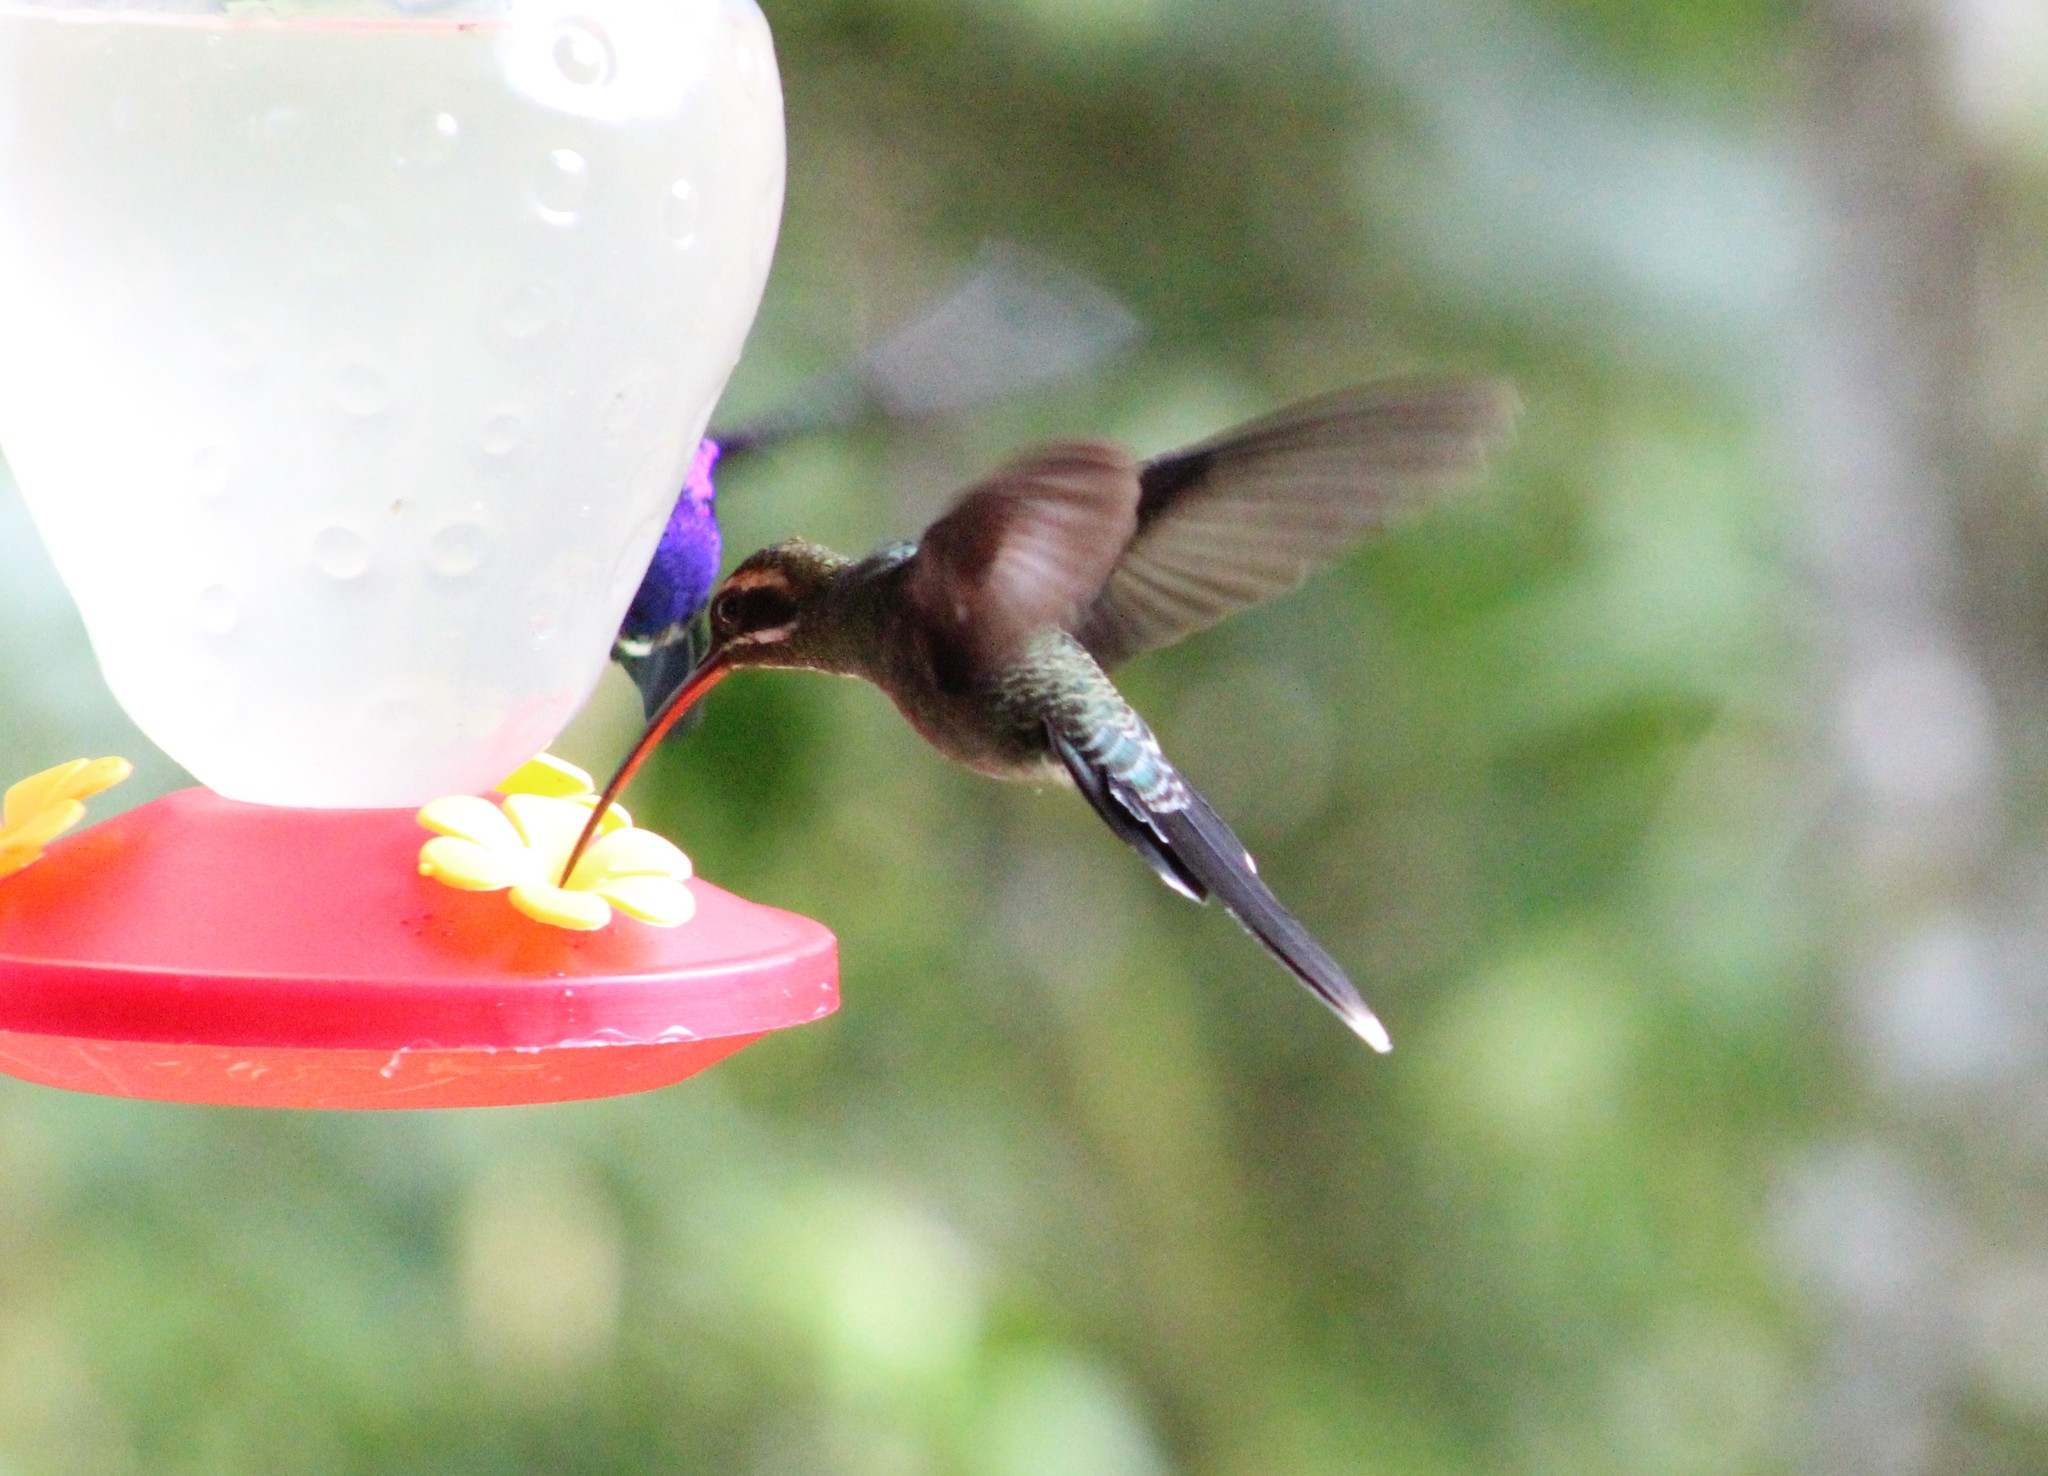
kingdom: Animalia
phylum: Chordata
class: Aves
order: Apodiformes
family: Trochilidae
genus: Phaethornis
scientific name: Phaethornis yaruqui
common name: White-whiskered hermit
